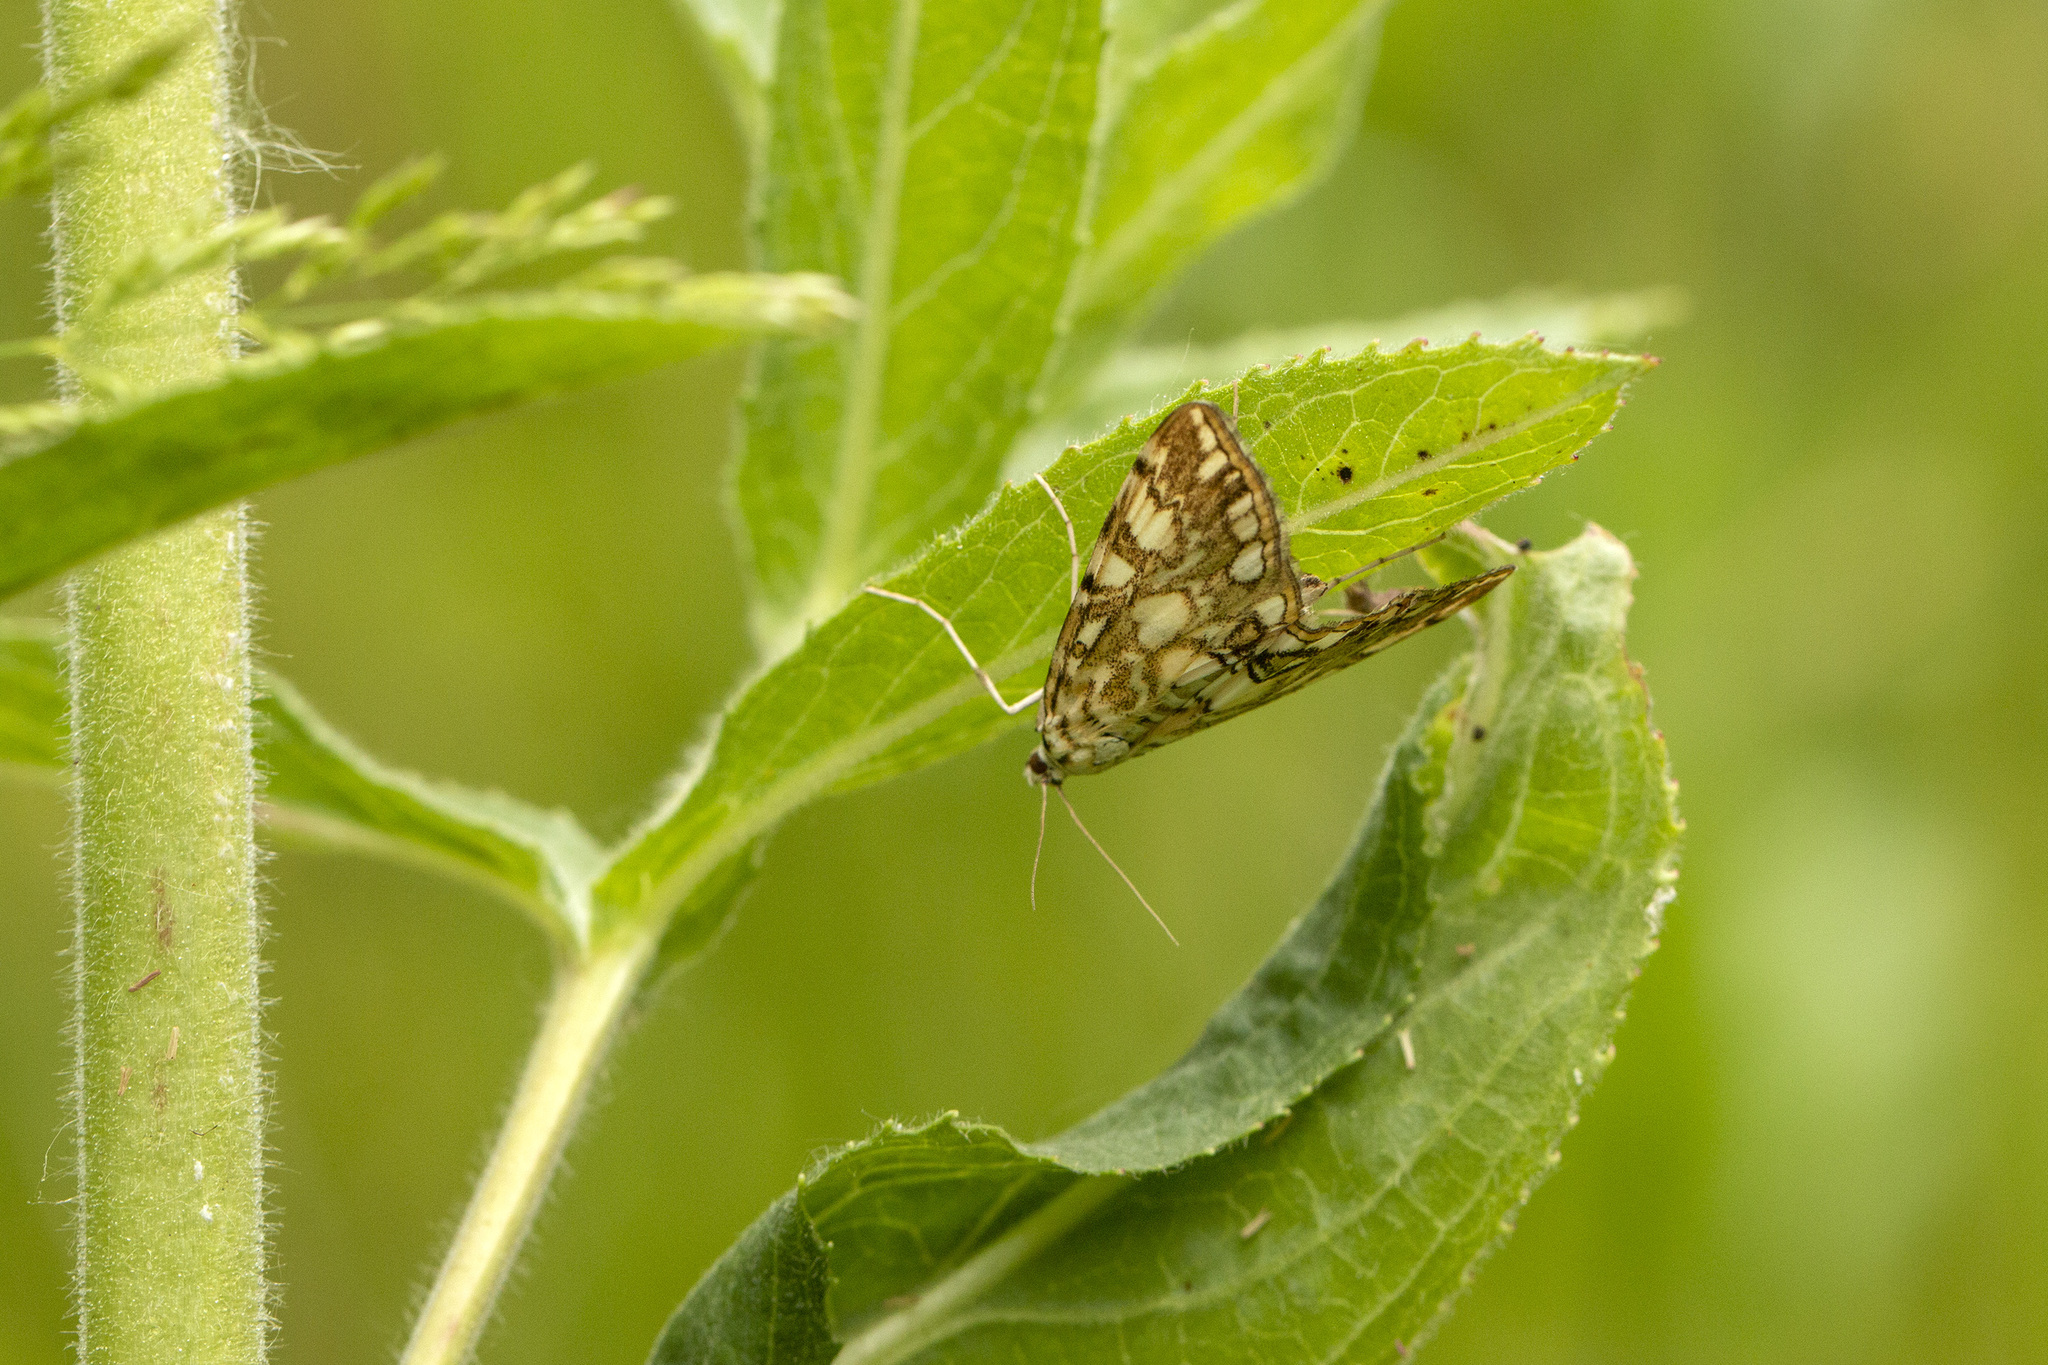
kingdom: Animalia
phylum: Arthropoda
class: Insecta
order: Lepidoptera
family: Crambidae
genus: Elophila
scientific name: Elophila nymphaeata
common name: Brown china-mark
